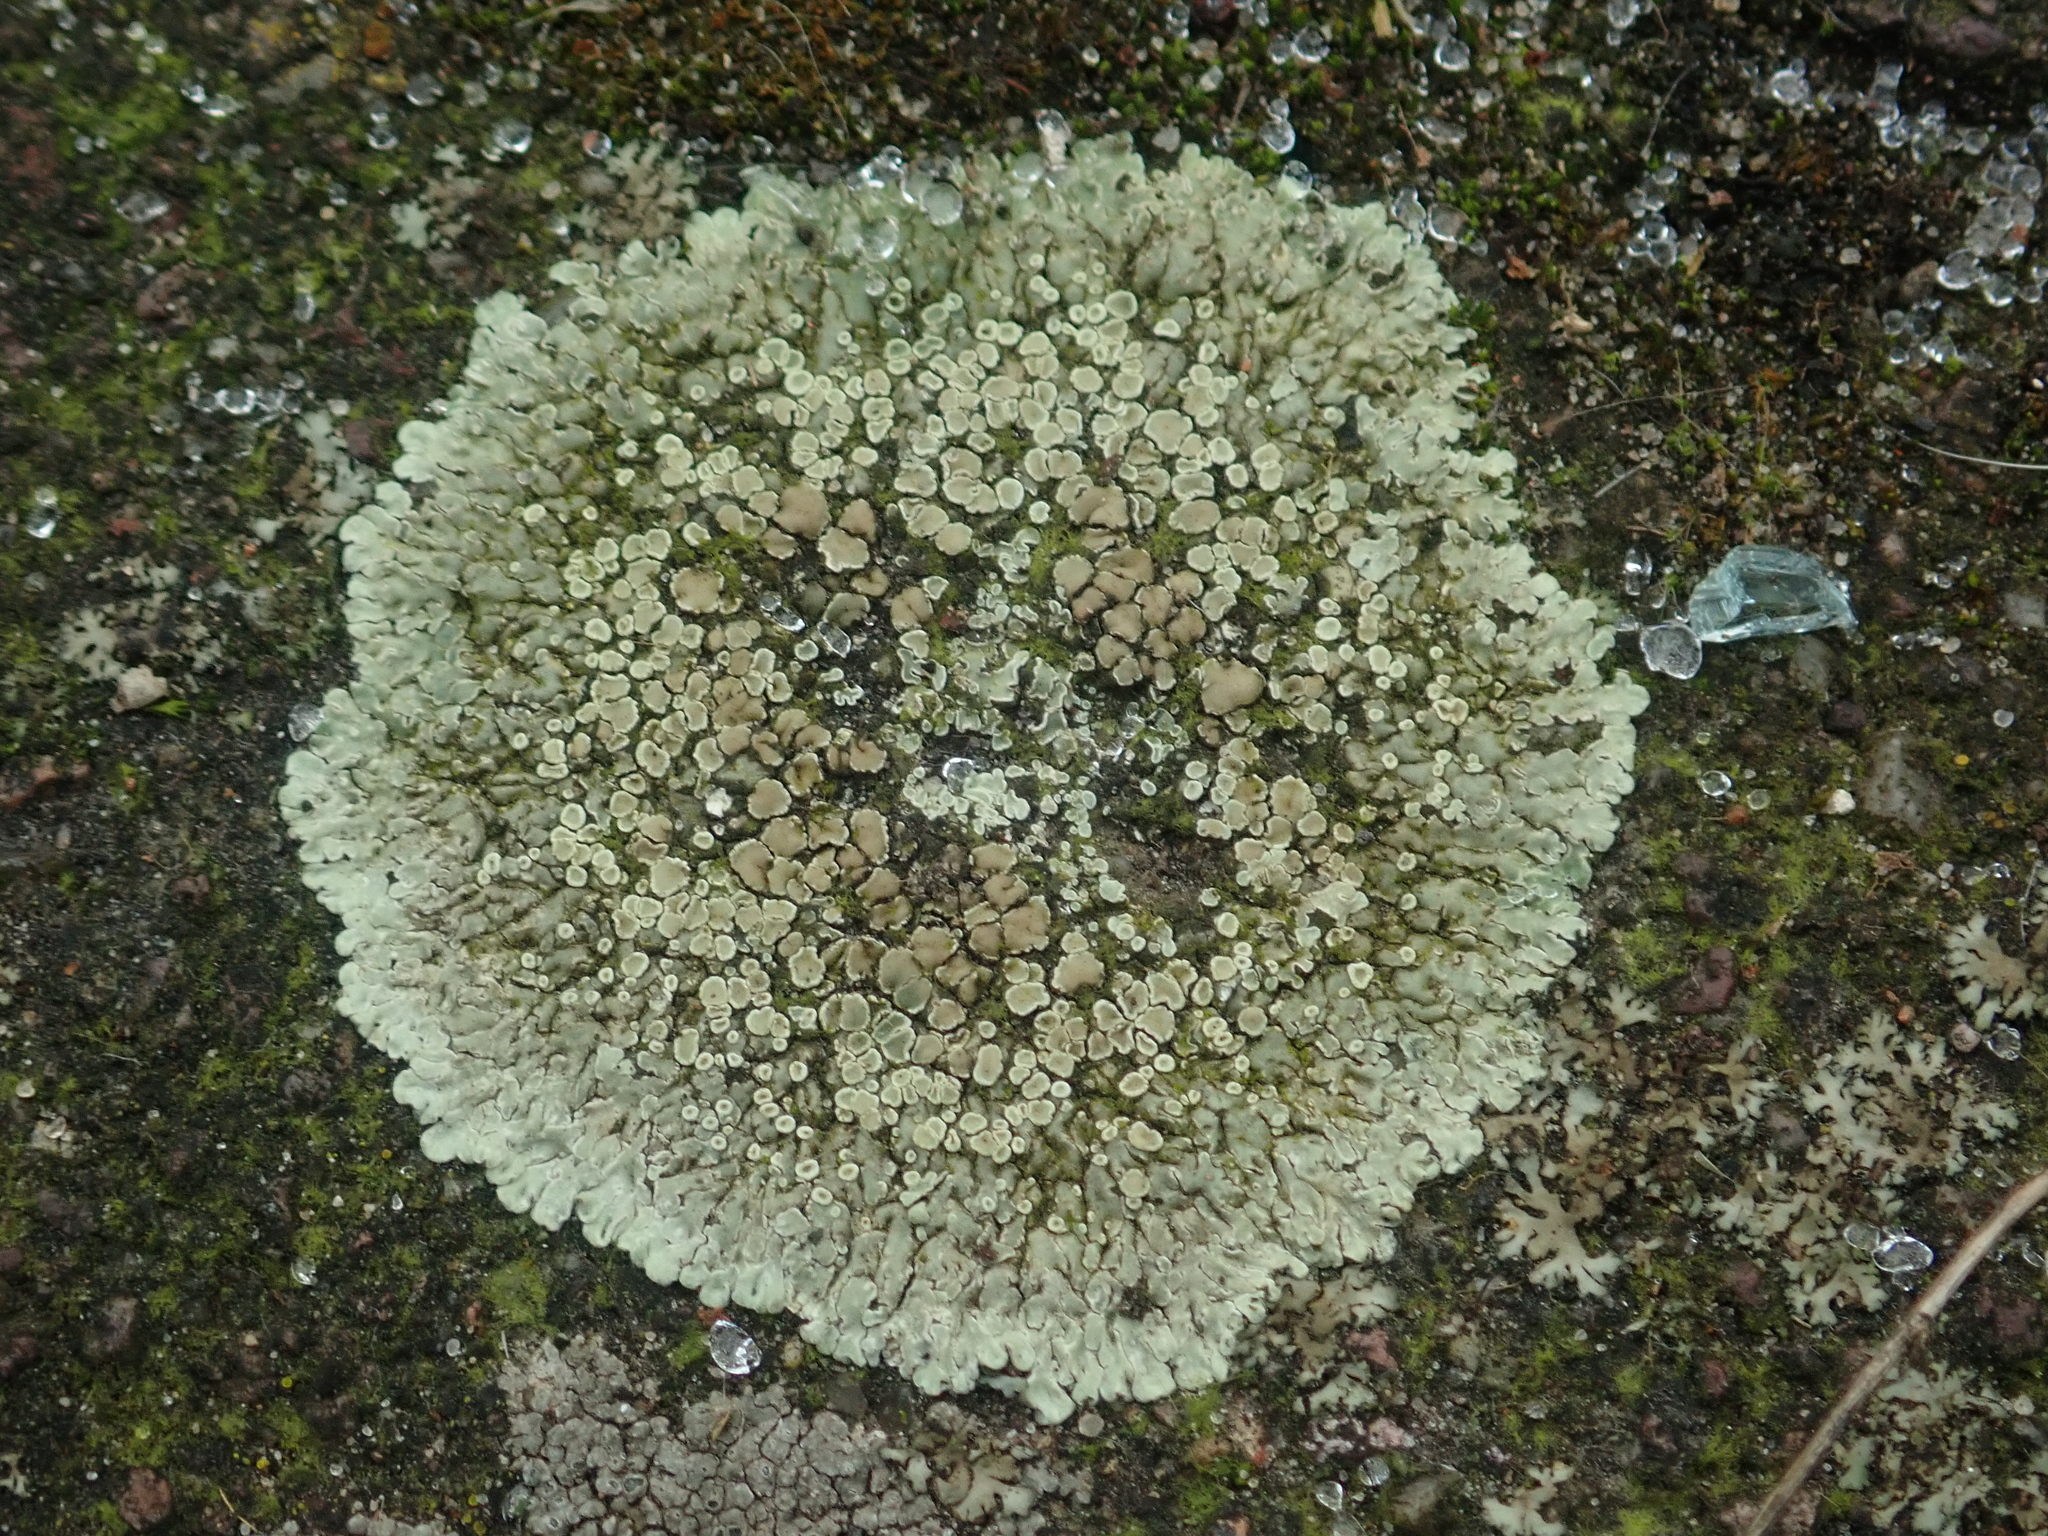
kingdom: Fungi
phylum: Ascomycota
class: Lecanoromycetes
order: Lecanorales
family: Lecanoraceae
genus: Protoparmeliopsis
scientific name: Protoparmeliopsis muralis
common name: Stonewall rim lichen
